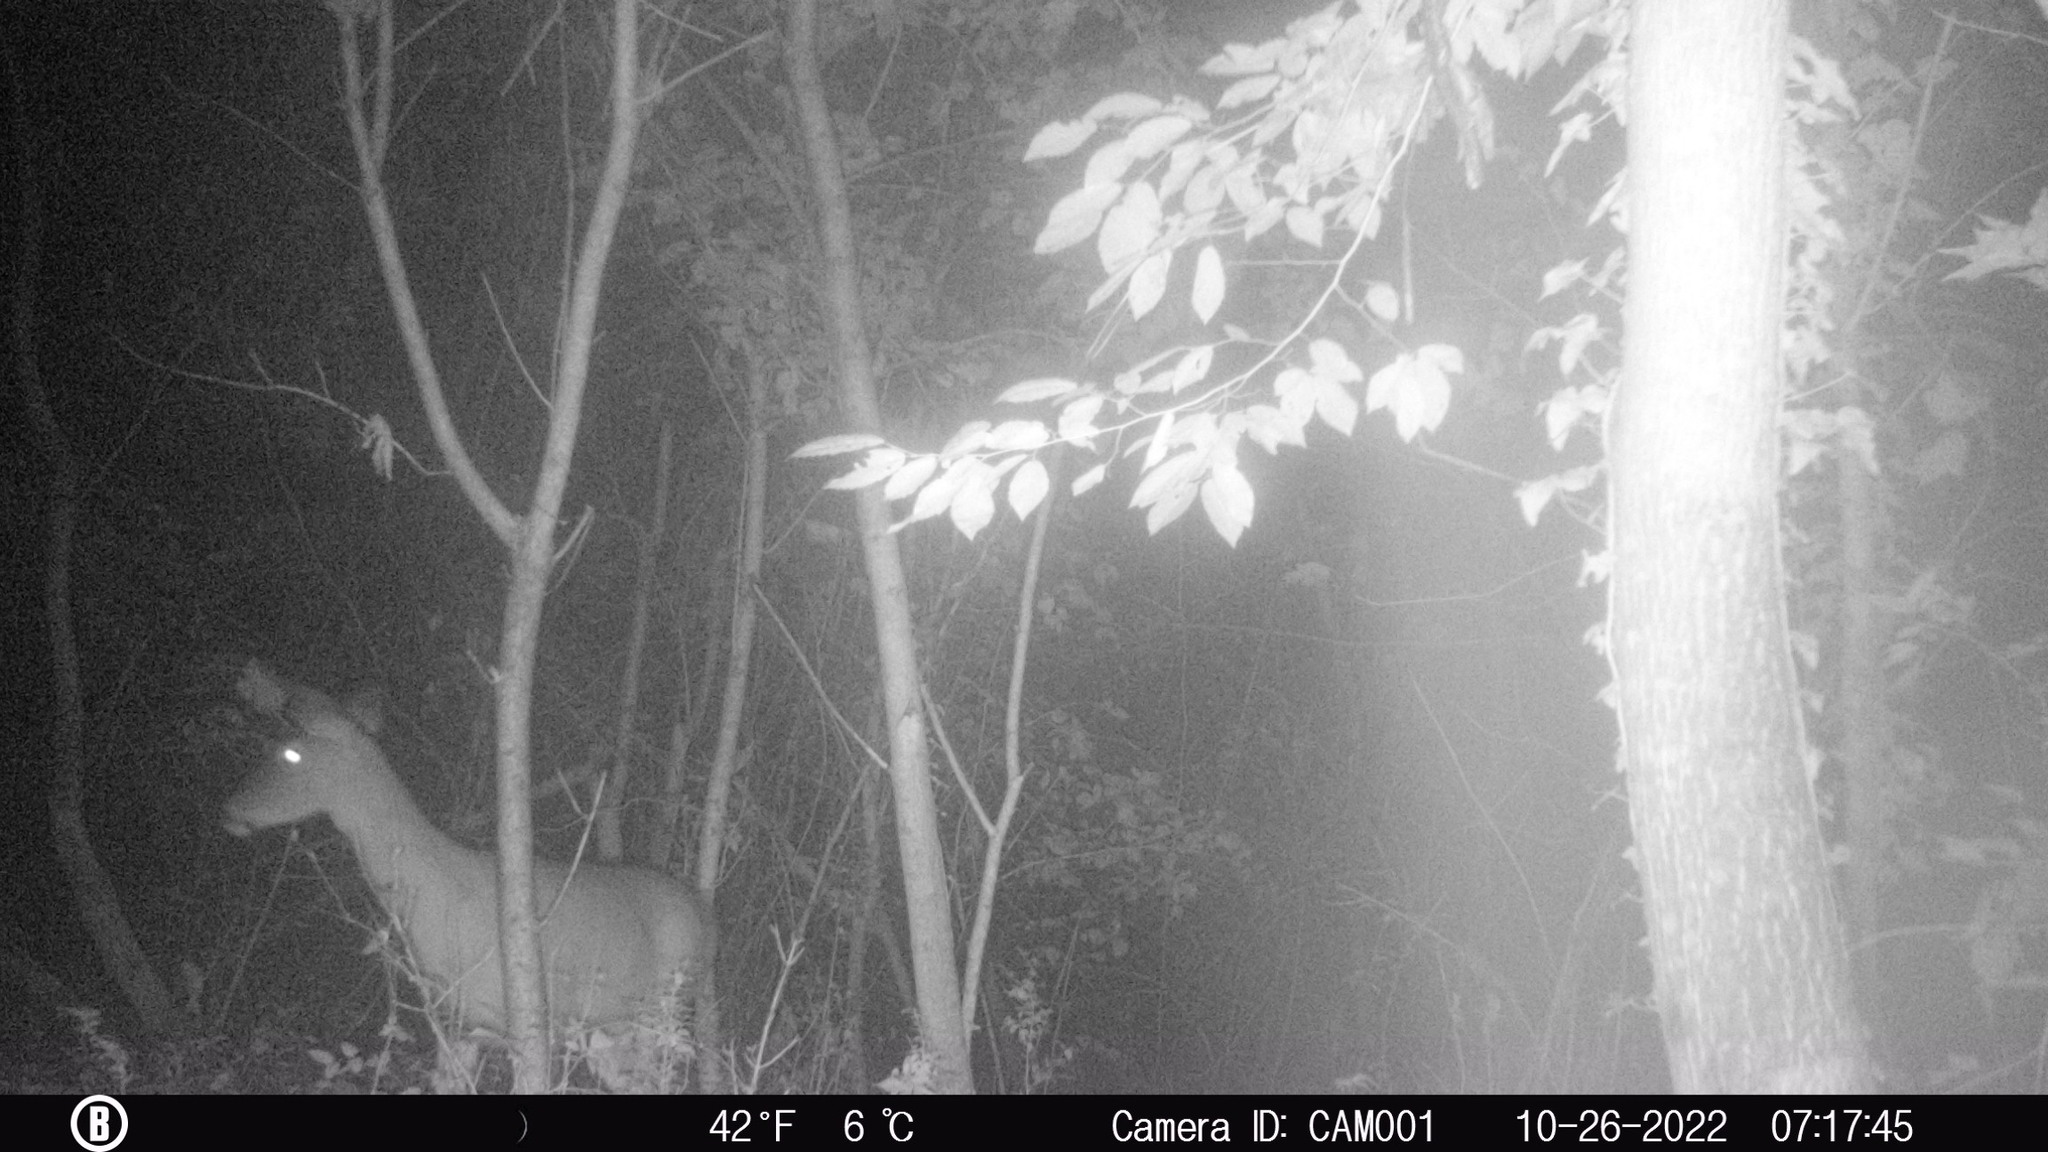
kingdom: Animalia
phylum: Chordata
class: Mammalia
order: Artiodactyla
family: Cervidae
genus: Odocoileus
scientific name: Odocoileus virginianus
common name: White-tailed deer
